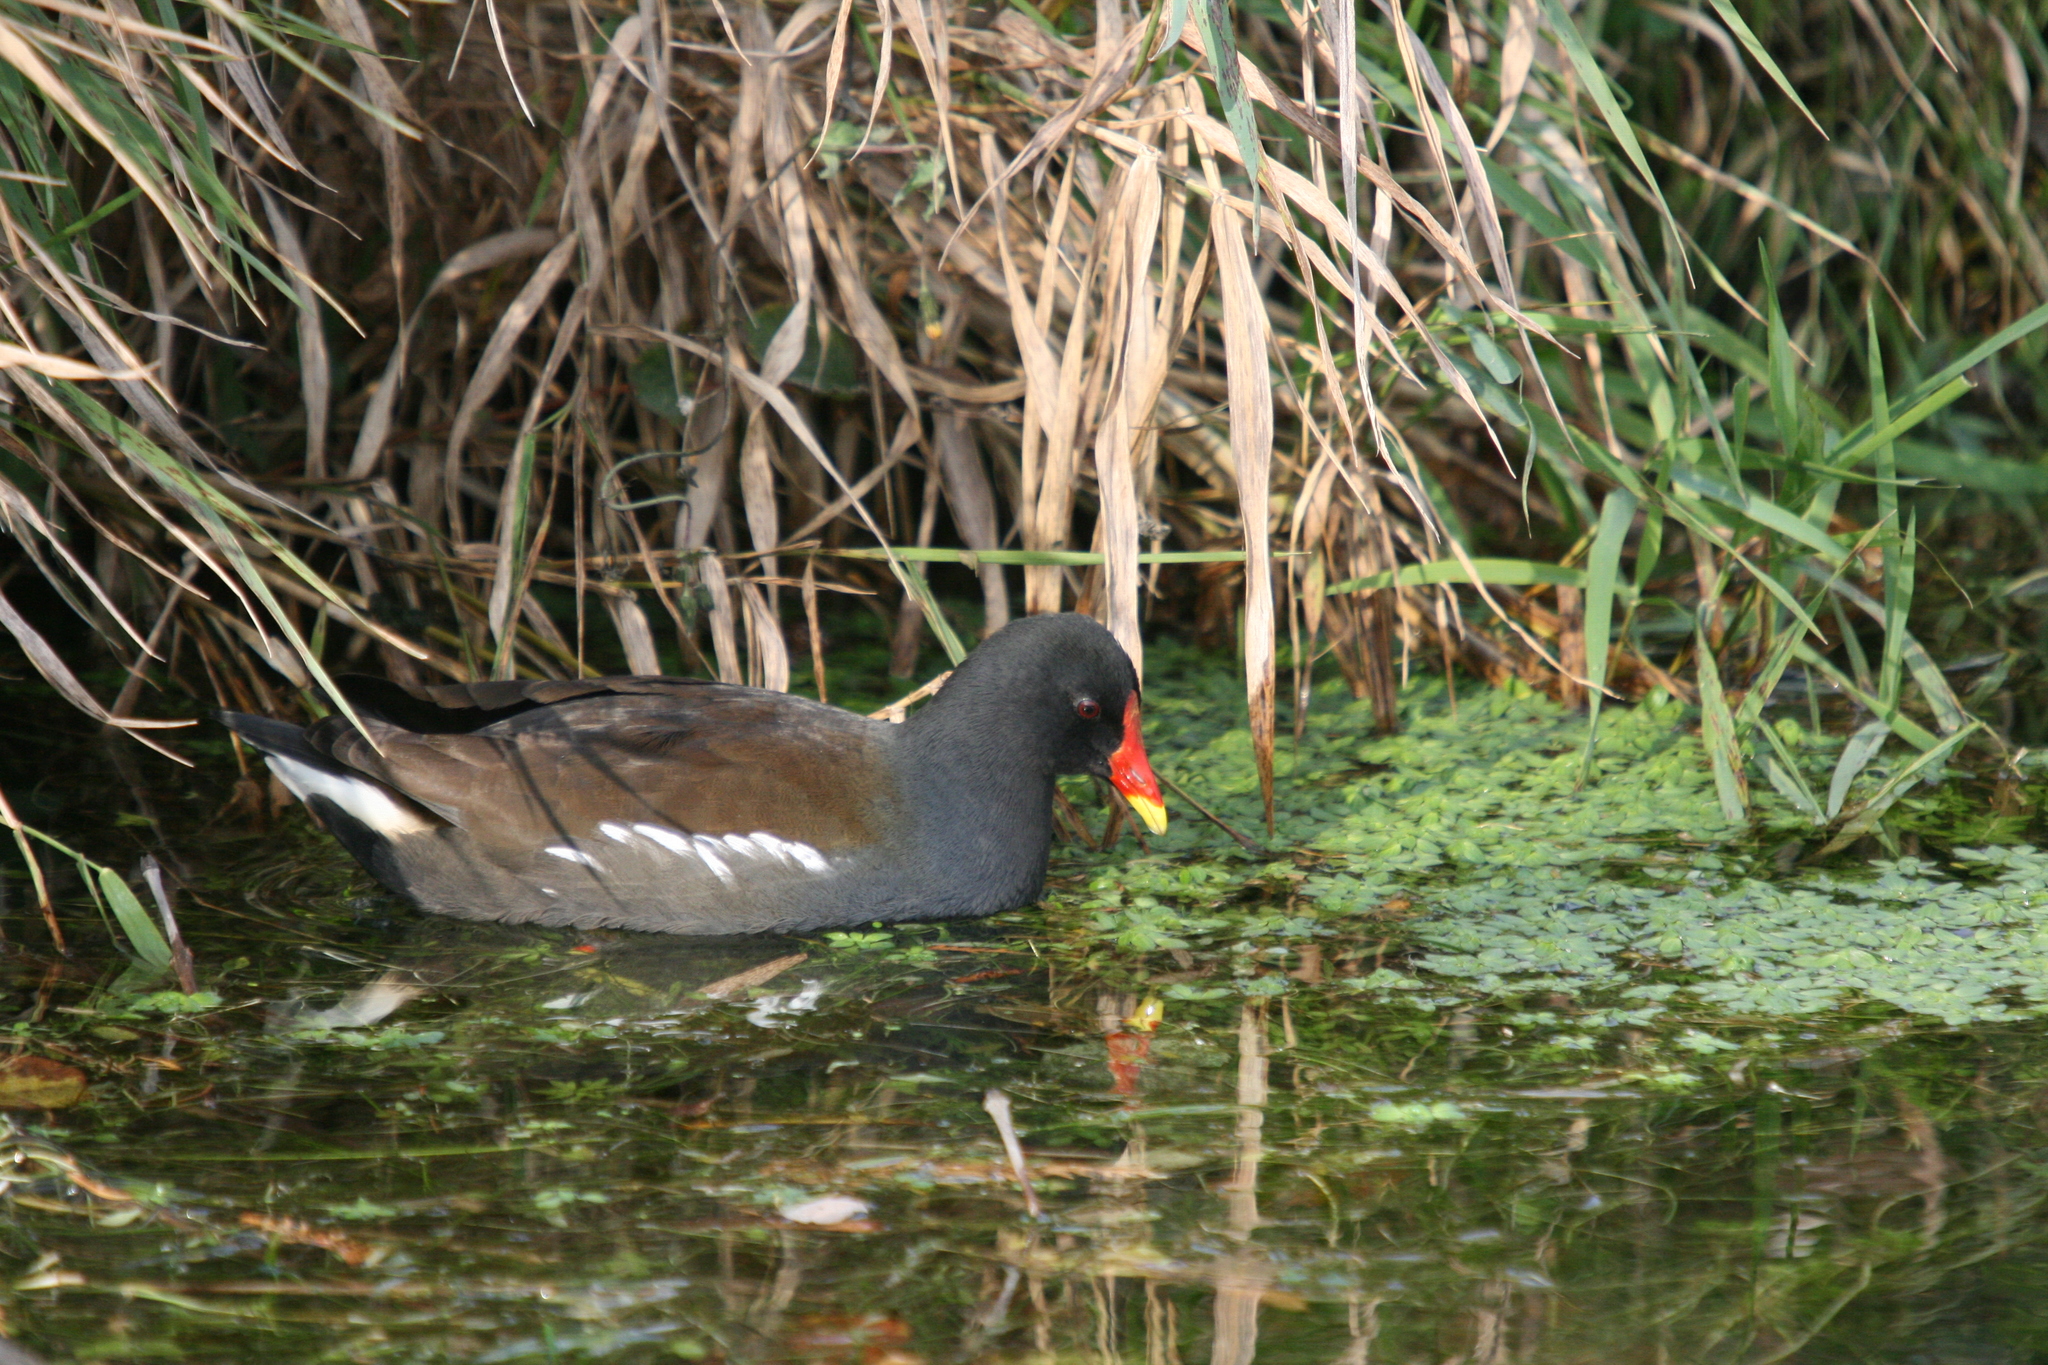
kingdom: Animalia
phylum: Chordata
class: Aves
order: Gruiformes
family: Rallidae
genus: Gallinula
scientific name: Gallinula chloropus
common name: Common moorhen
